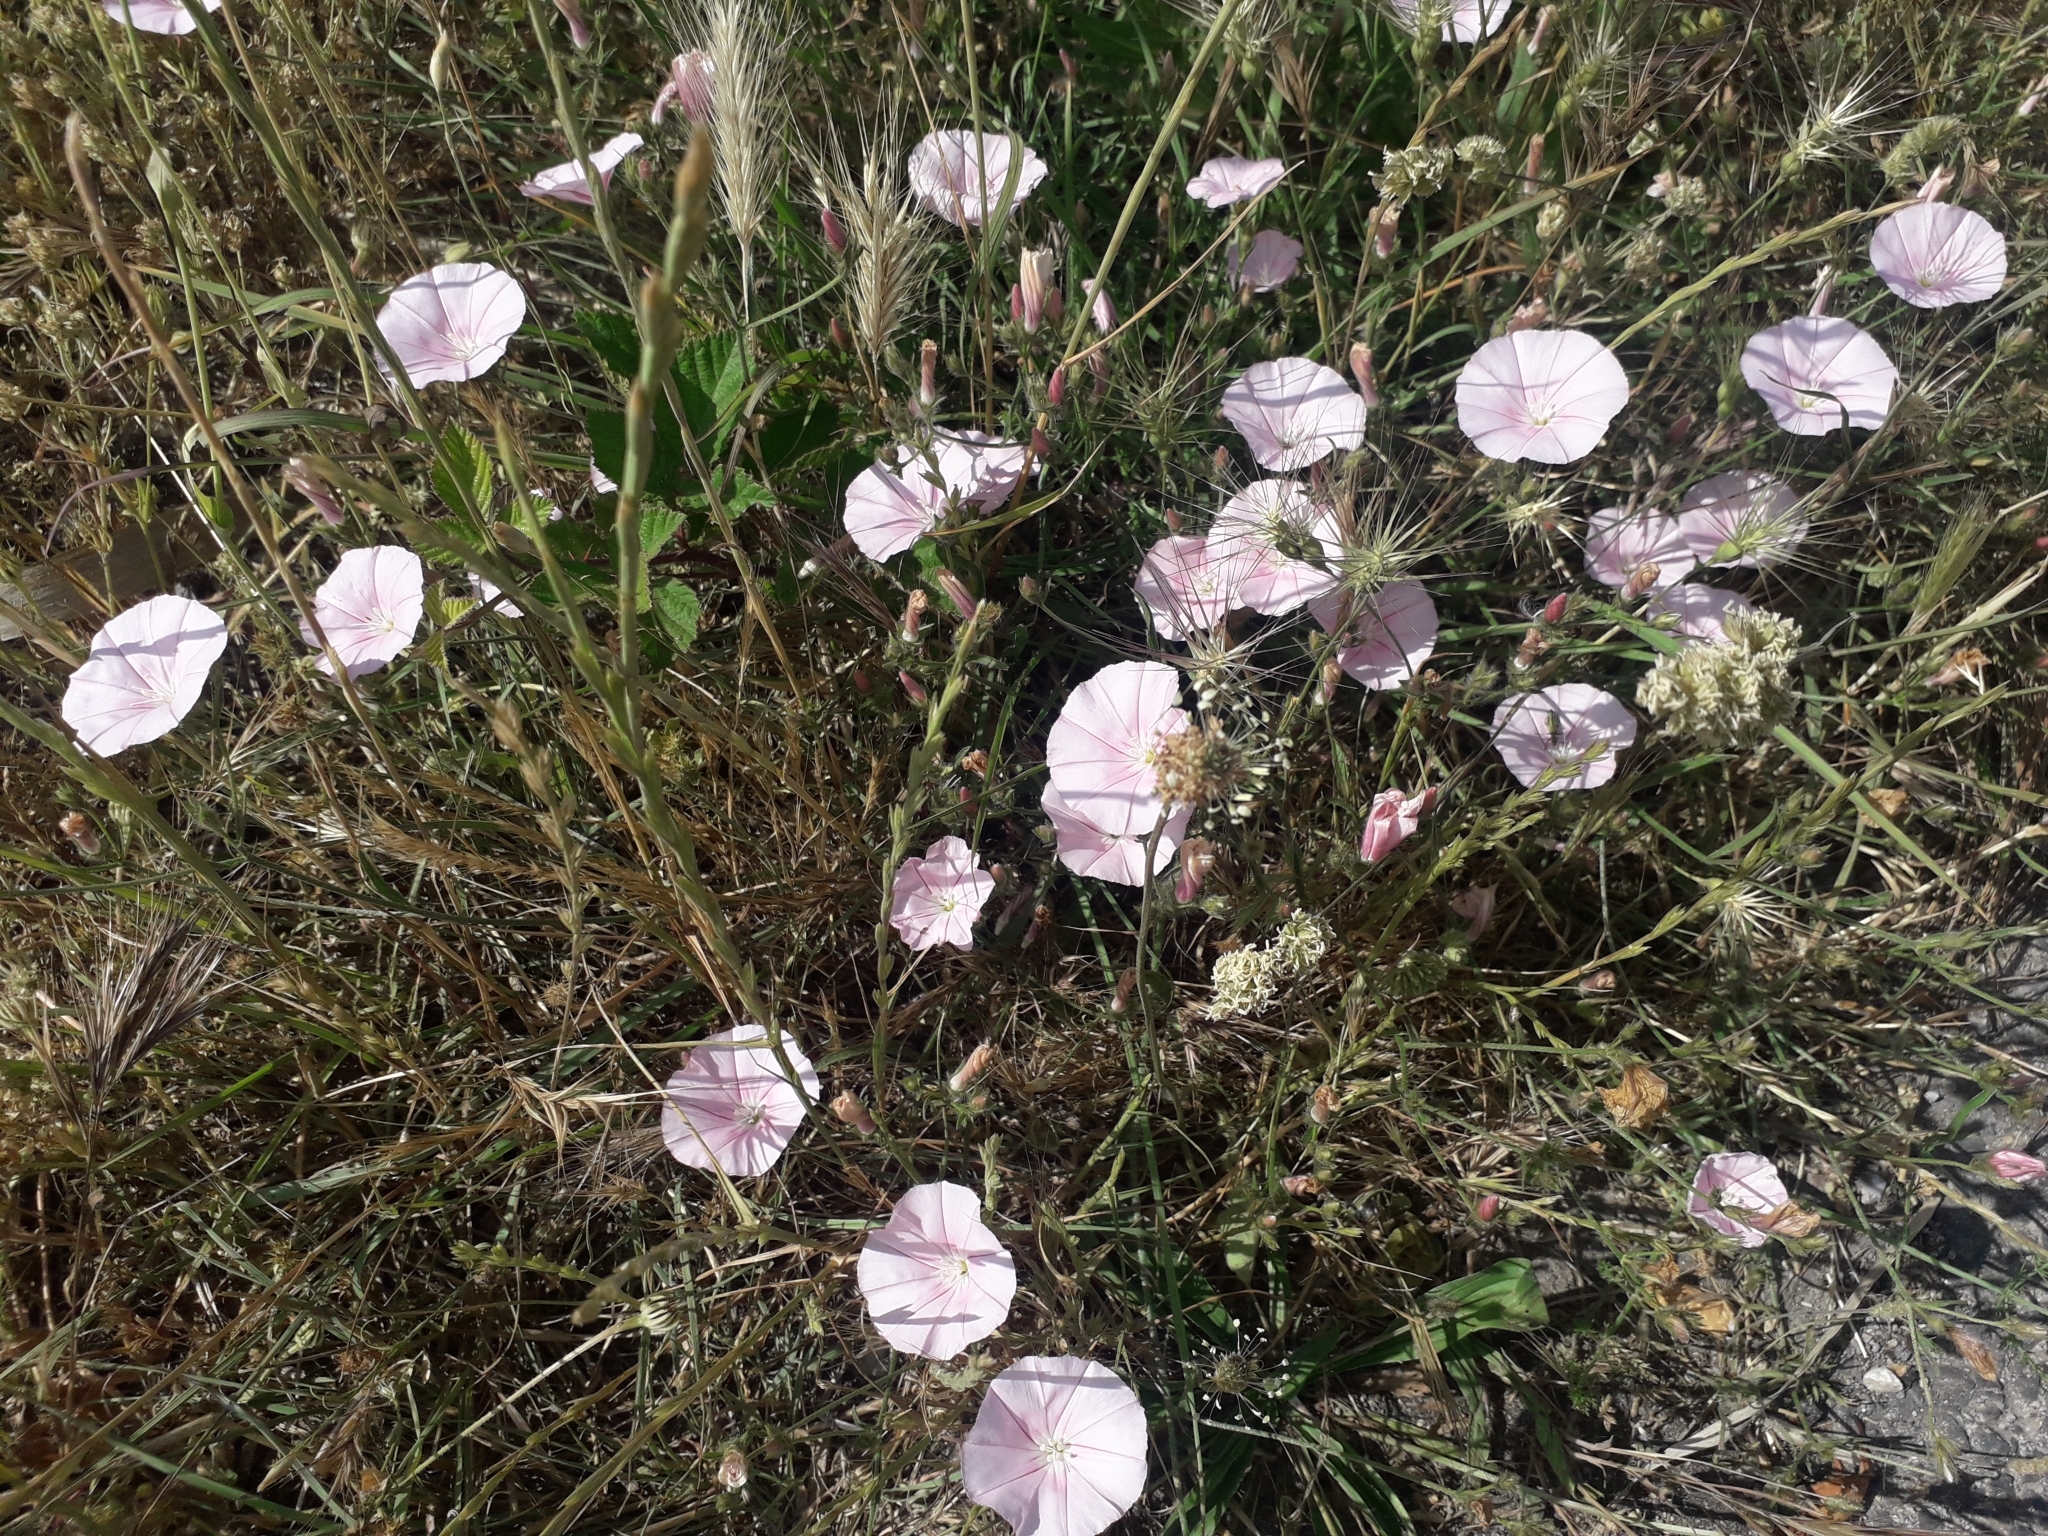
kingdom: Plantae
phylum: Tracheophyta
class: Magnoliopsida
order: Solanales
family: Convolvulaceae
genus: Convolvulus
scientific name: Convolvulus cantabrica
